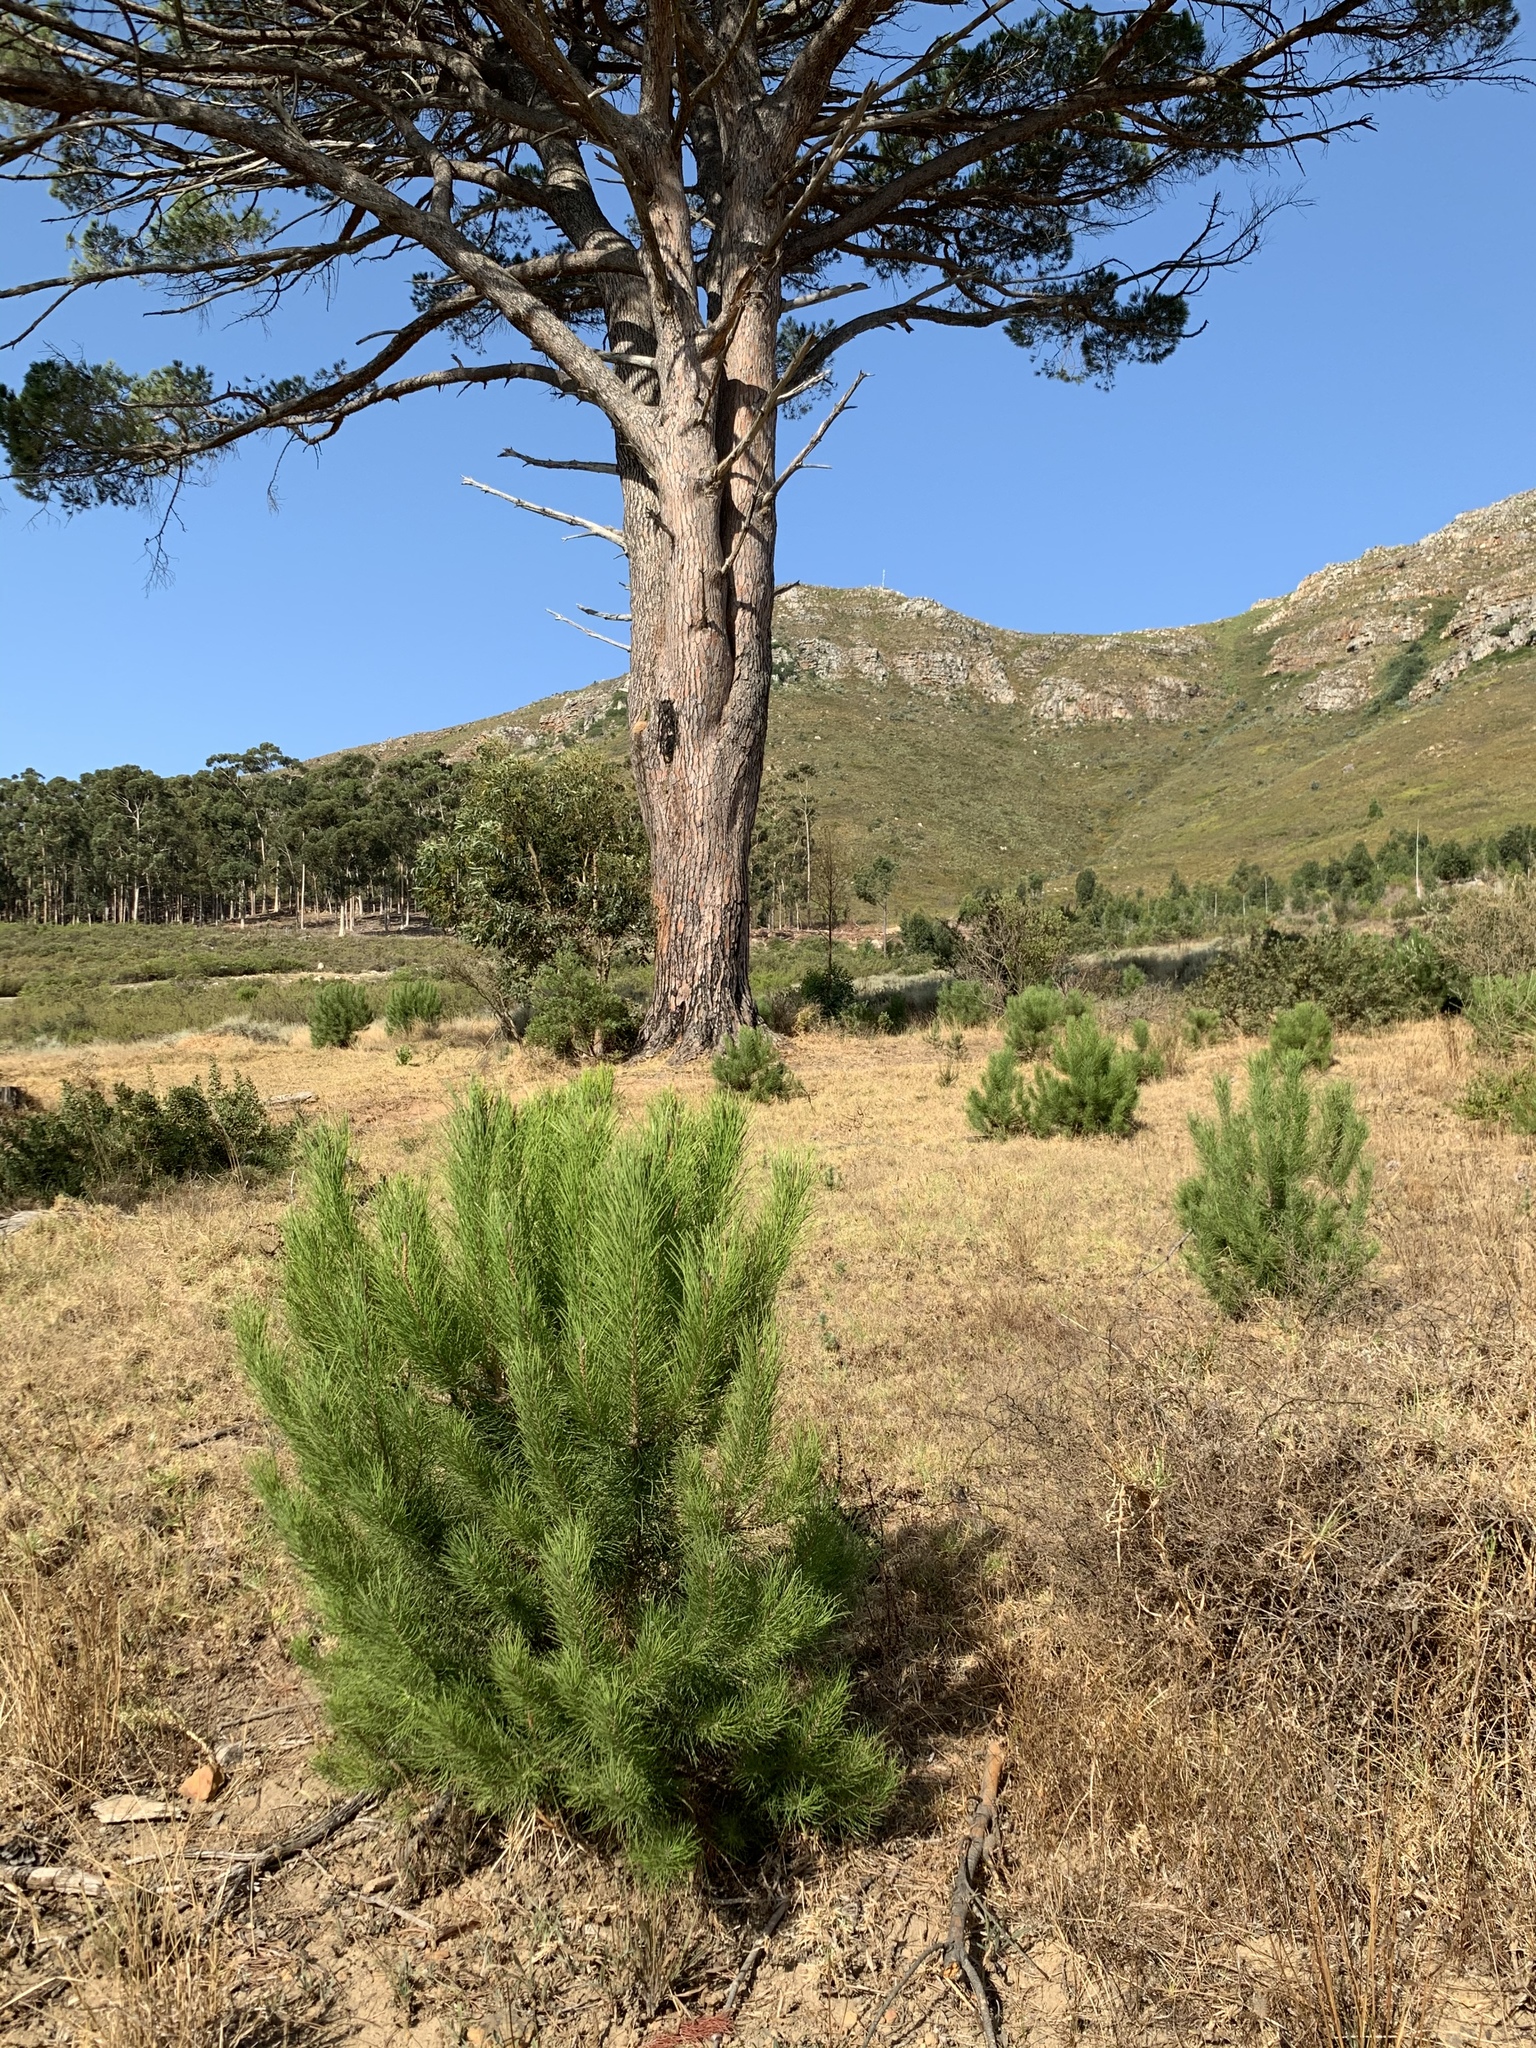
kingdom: Plantae
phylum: Tracheophyta
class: Pinopsida
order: Pinales
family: Pinaceae
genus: Pinus
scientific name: Pinus pinea
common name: Italian stone pine
